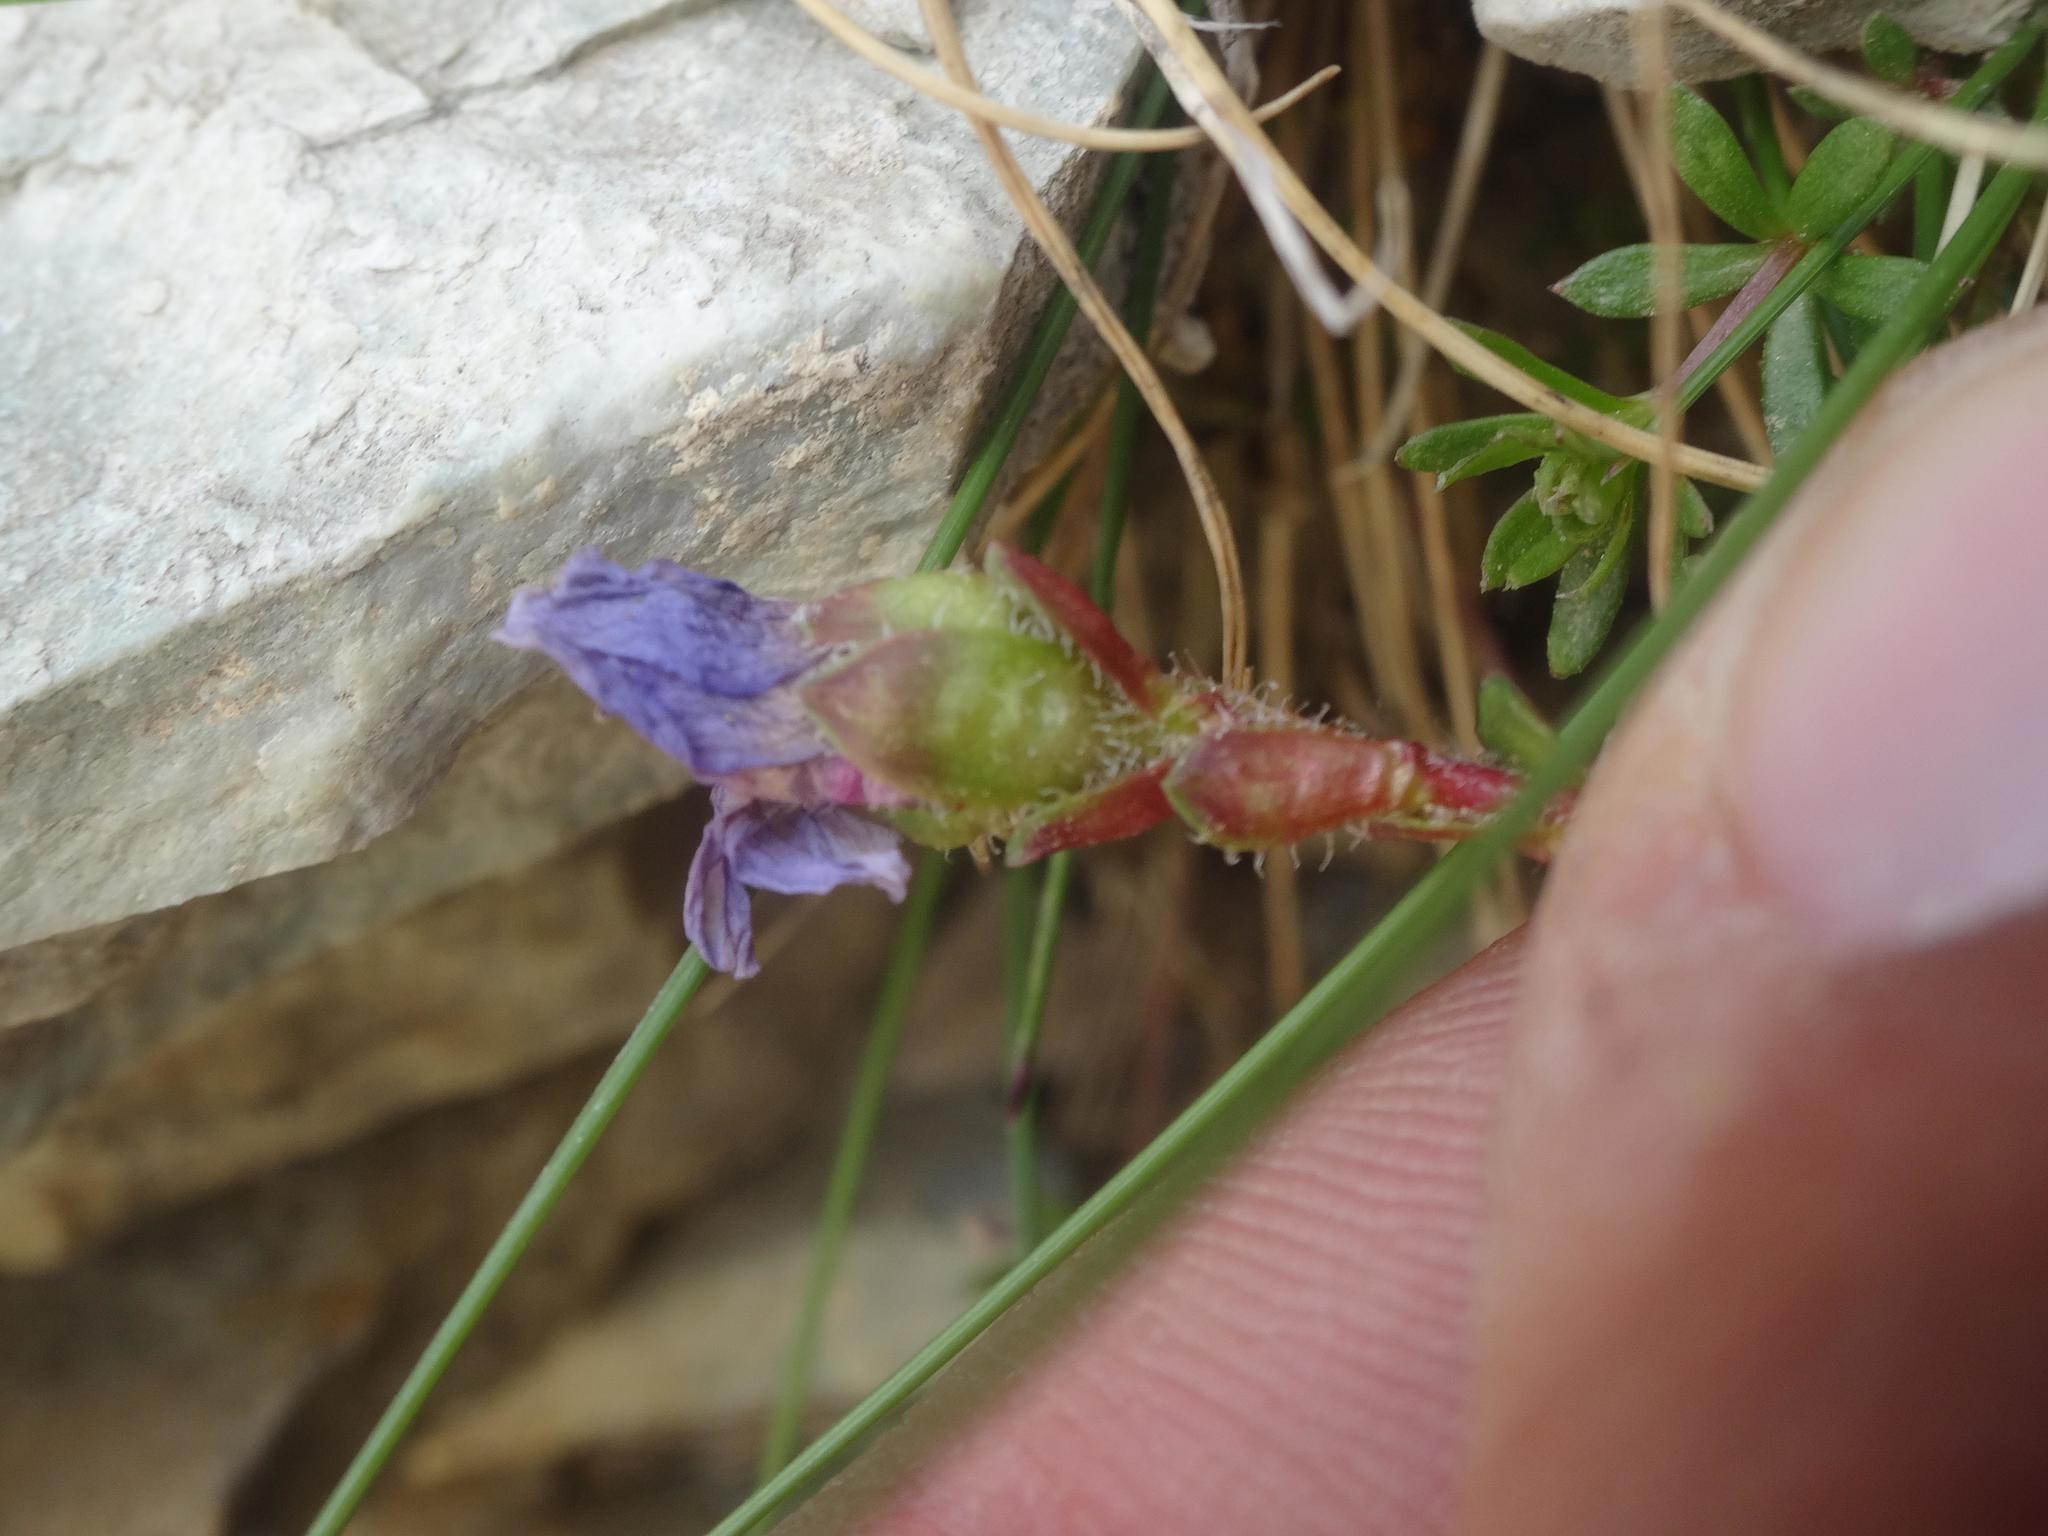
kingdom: Plantae
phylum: Tracheophyta
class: Magnoliopsida
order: Saxifragales
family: Saxifragaceae
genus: Saxifraga
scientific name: Saxifraga oppositifolia
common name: Purple saxifrage
